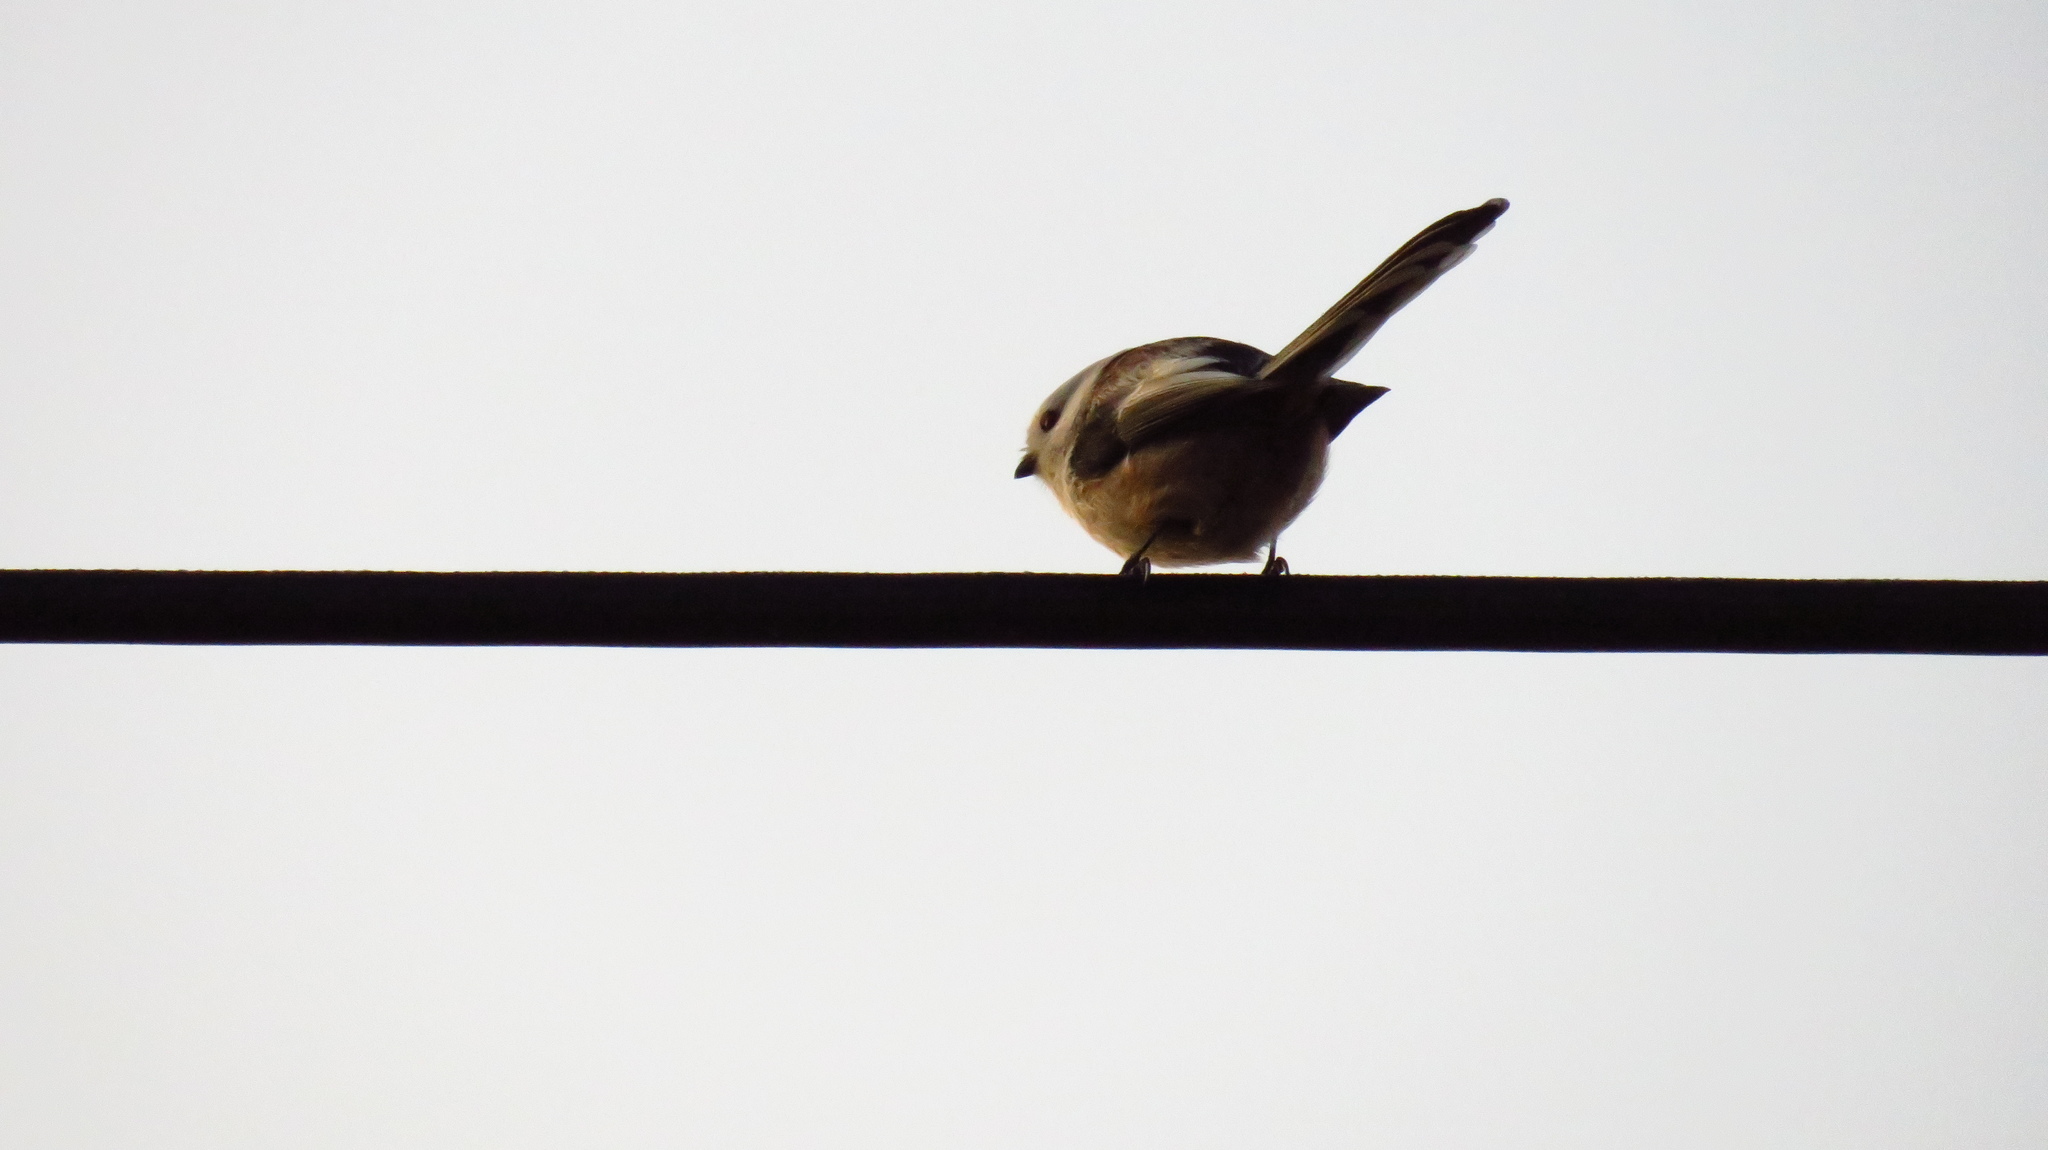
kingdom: Animalia
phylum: Chordata
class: Aves
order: Passeriformes
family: Aegithalidae
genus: Aegithalos
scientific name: Aegithalos caudatus
